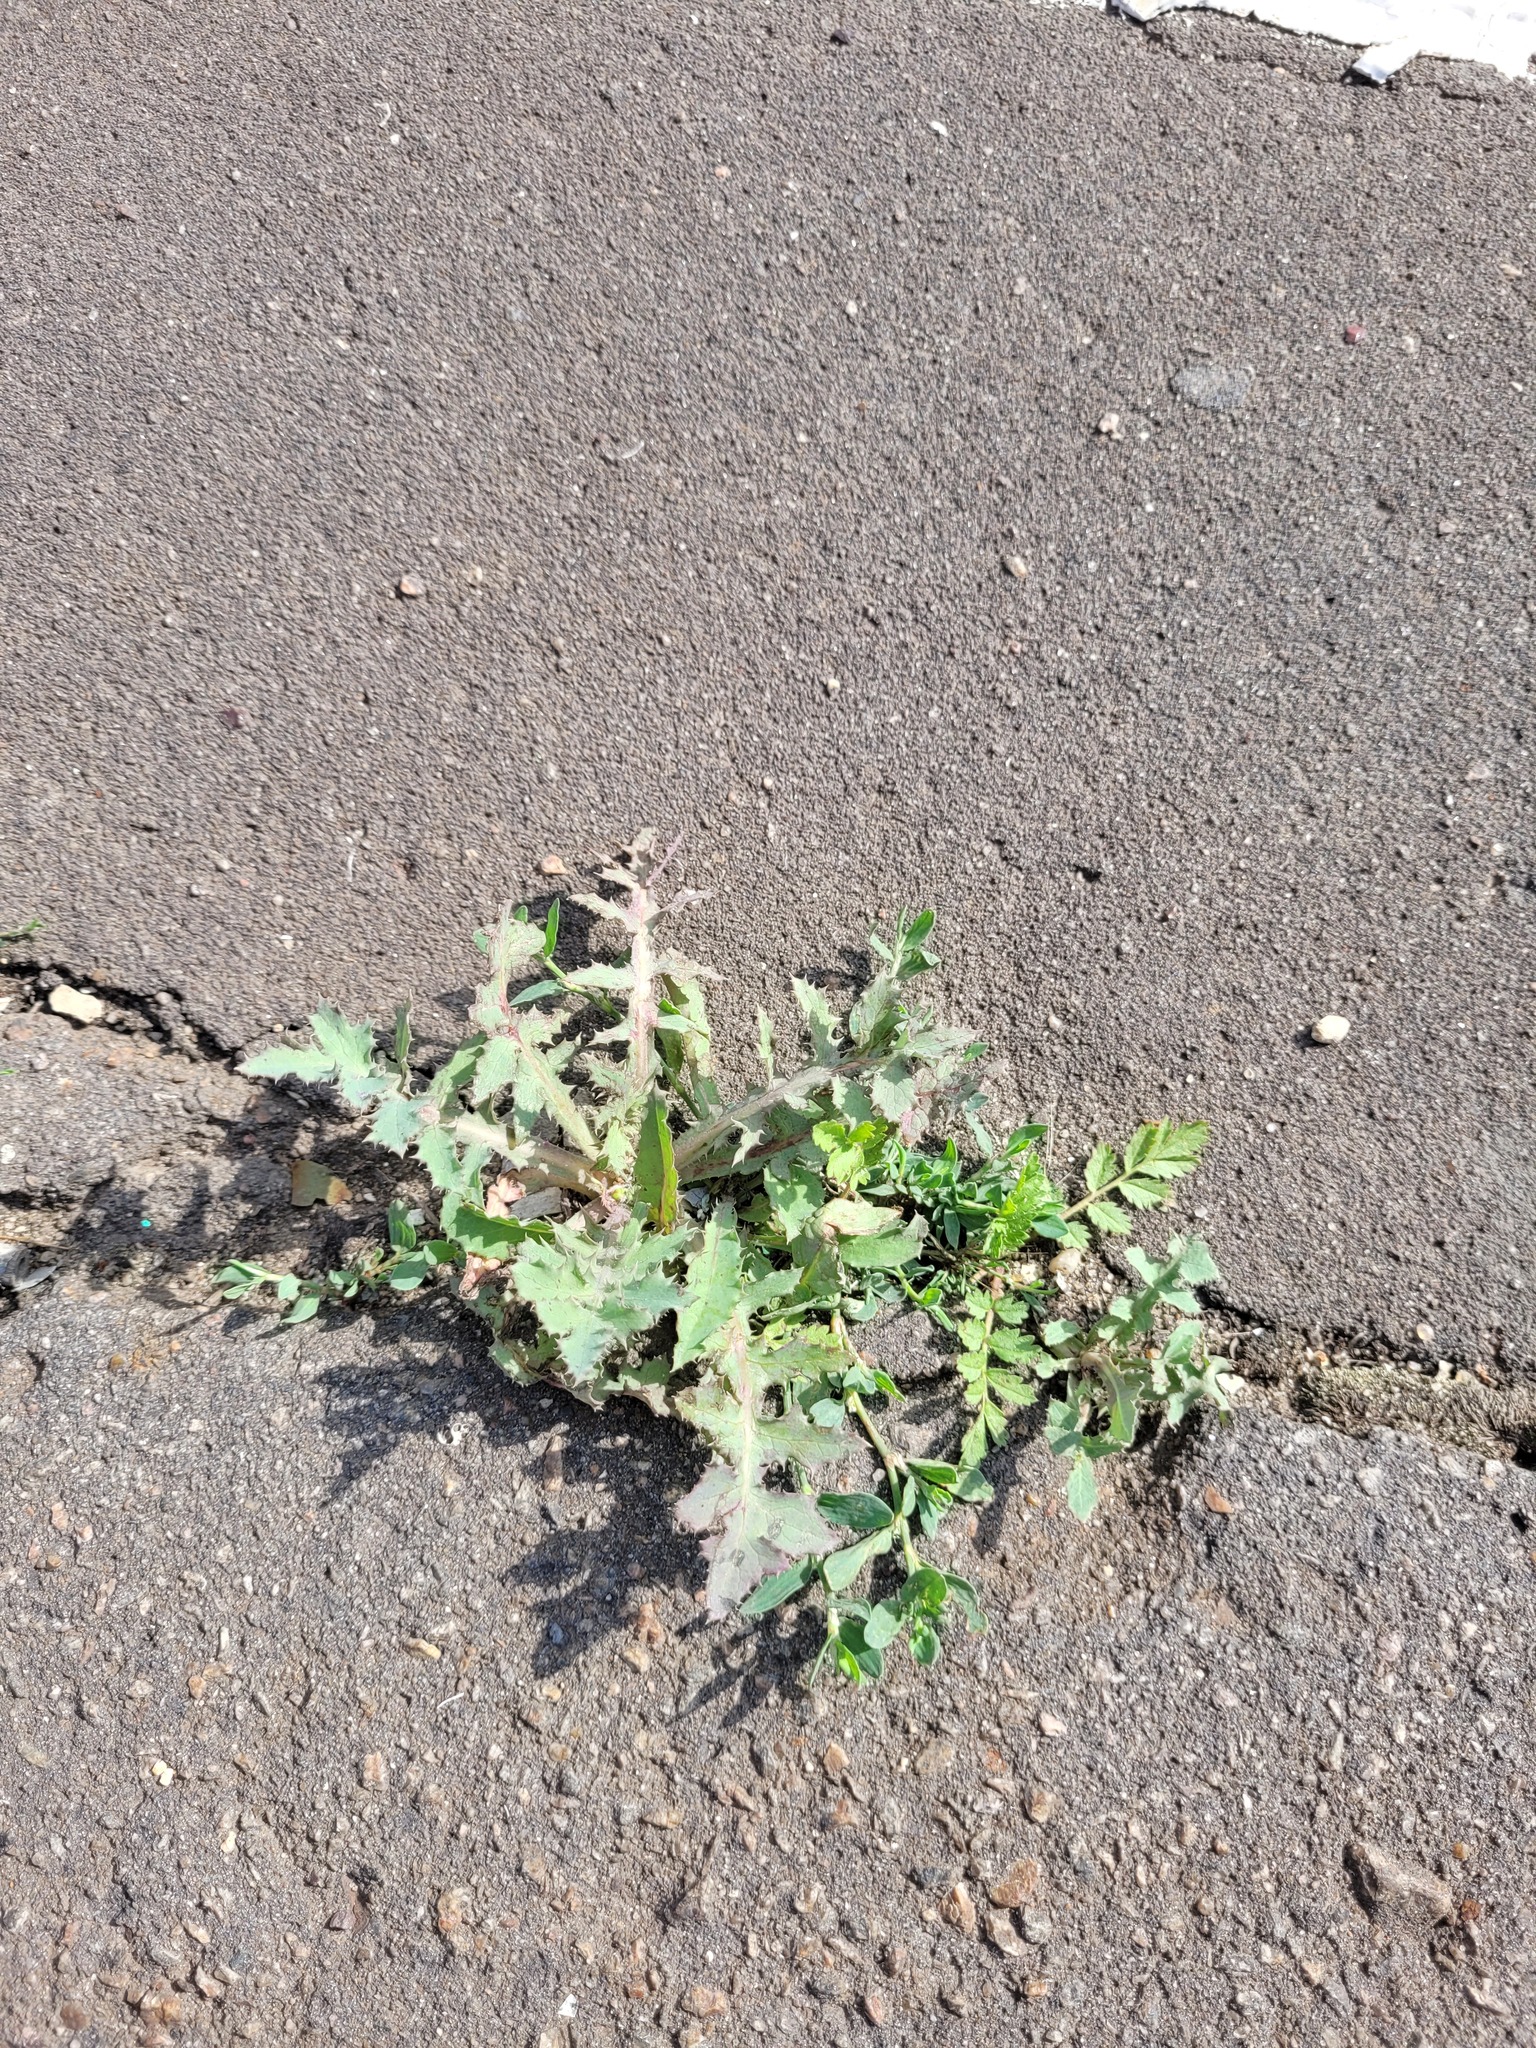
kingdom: Plantae
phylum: Tracheophyta
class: Magnoliopsida
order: Asterales
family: Asteraceae
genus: Sonchus
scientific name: Sonchus oleraceus
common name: Common sowthistle
